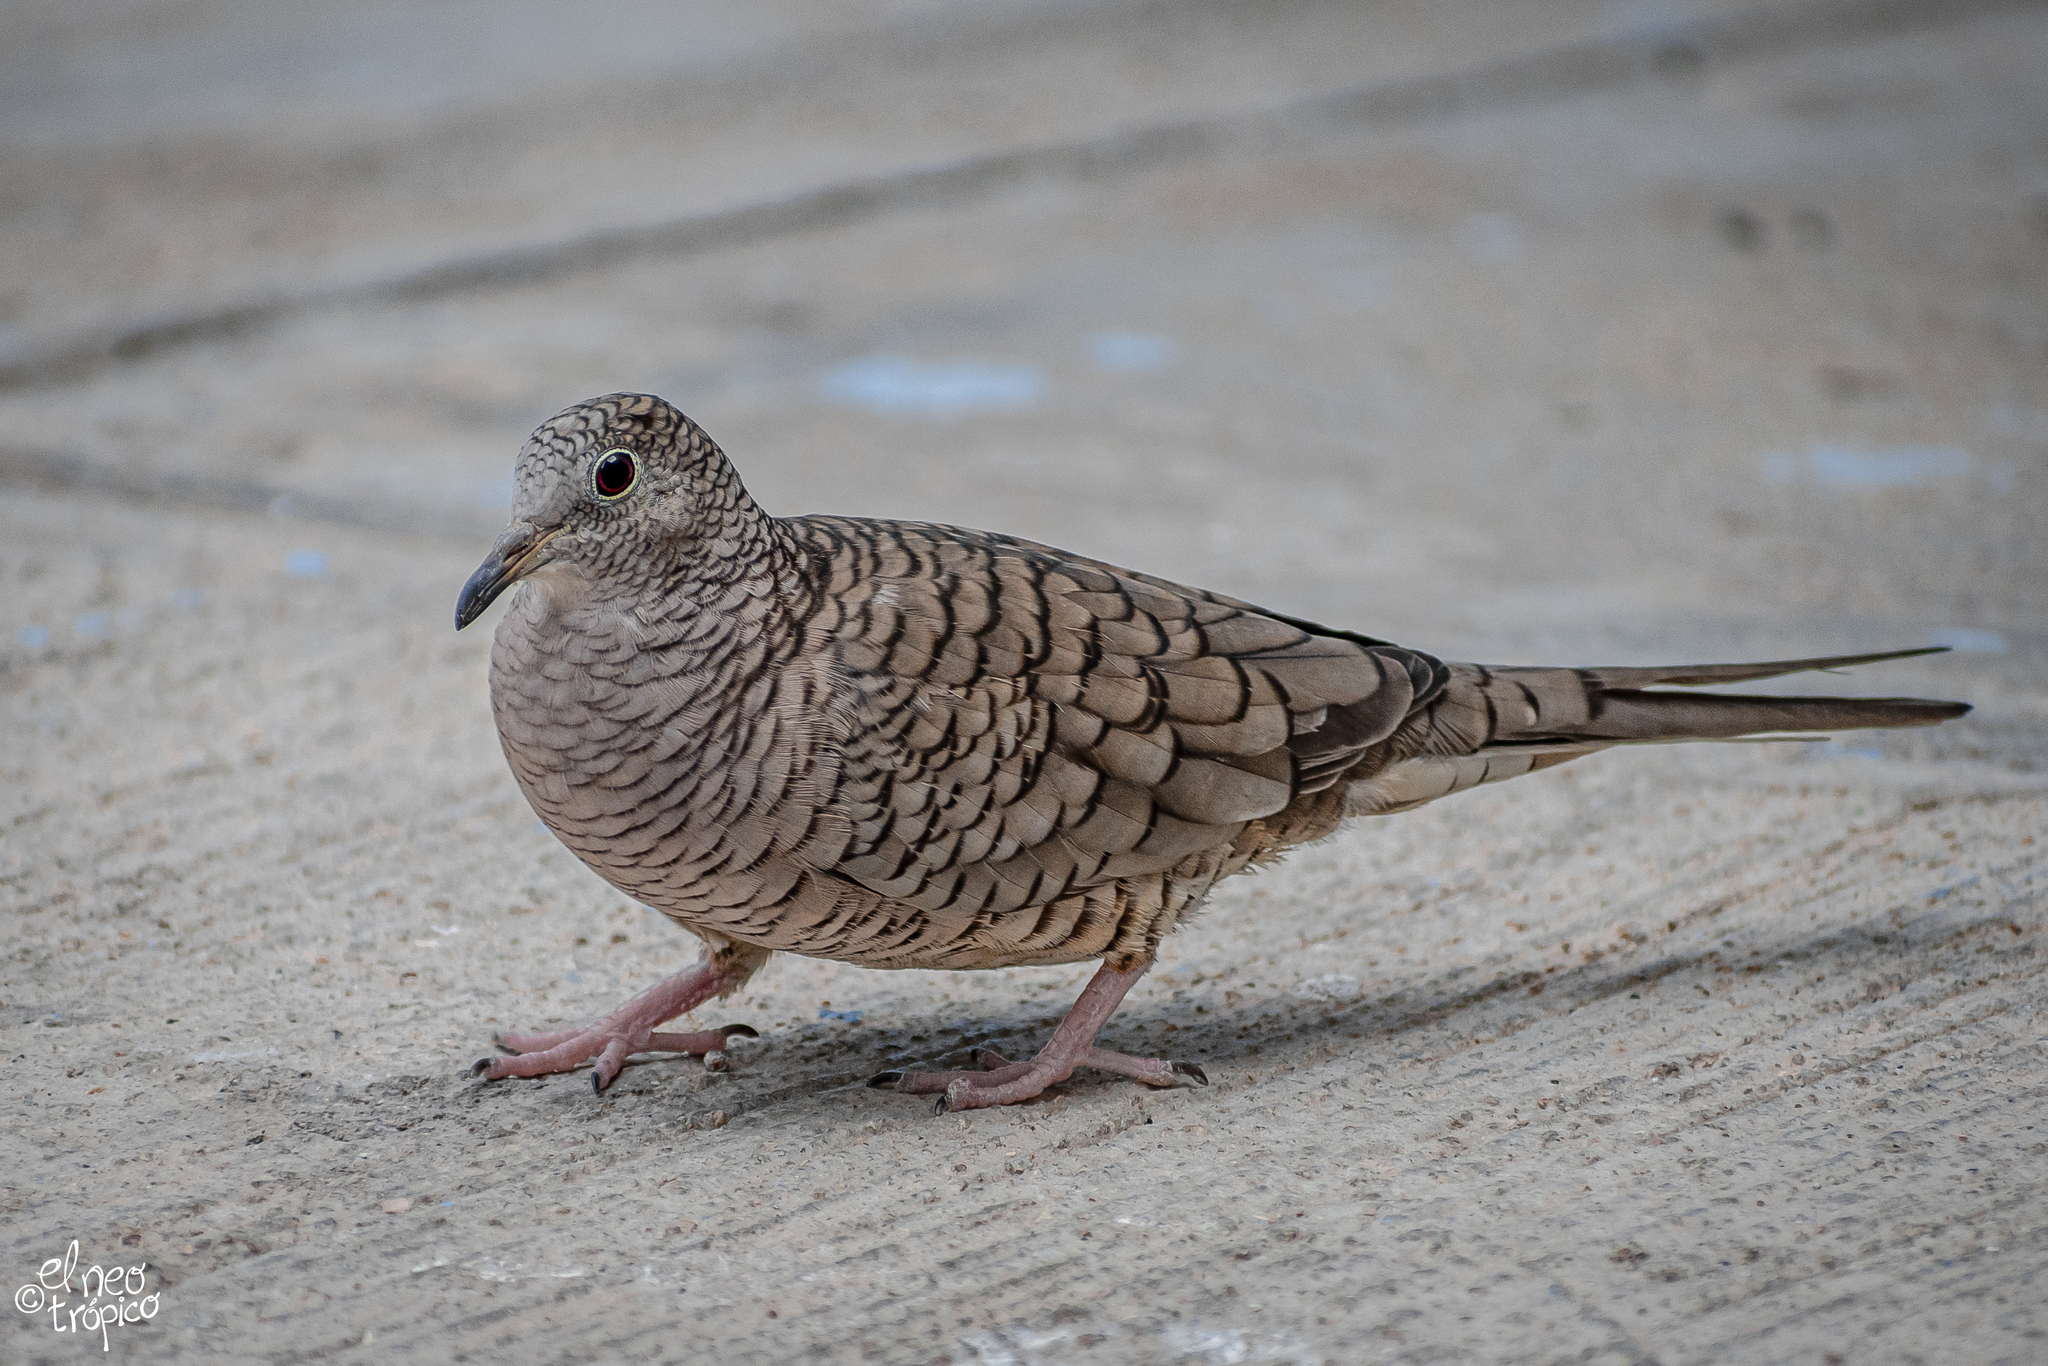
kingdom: Animalia
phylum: Chordata
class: Aves
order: Columbiformes
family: Columbidae
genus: Columbina
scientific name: Columbina inca
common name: Inca dove
